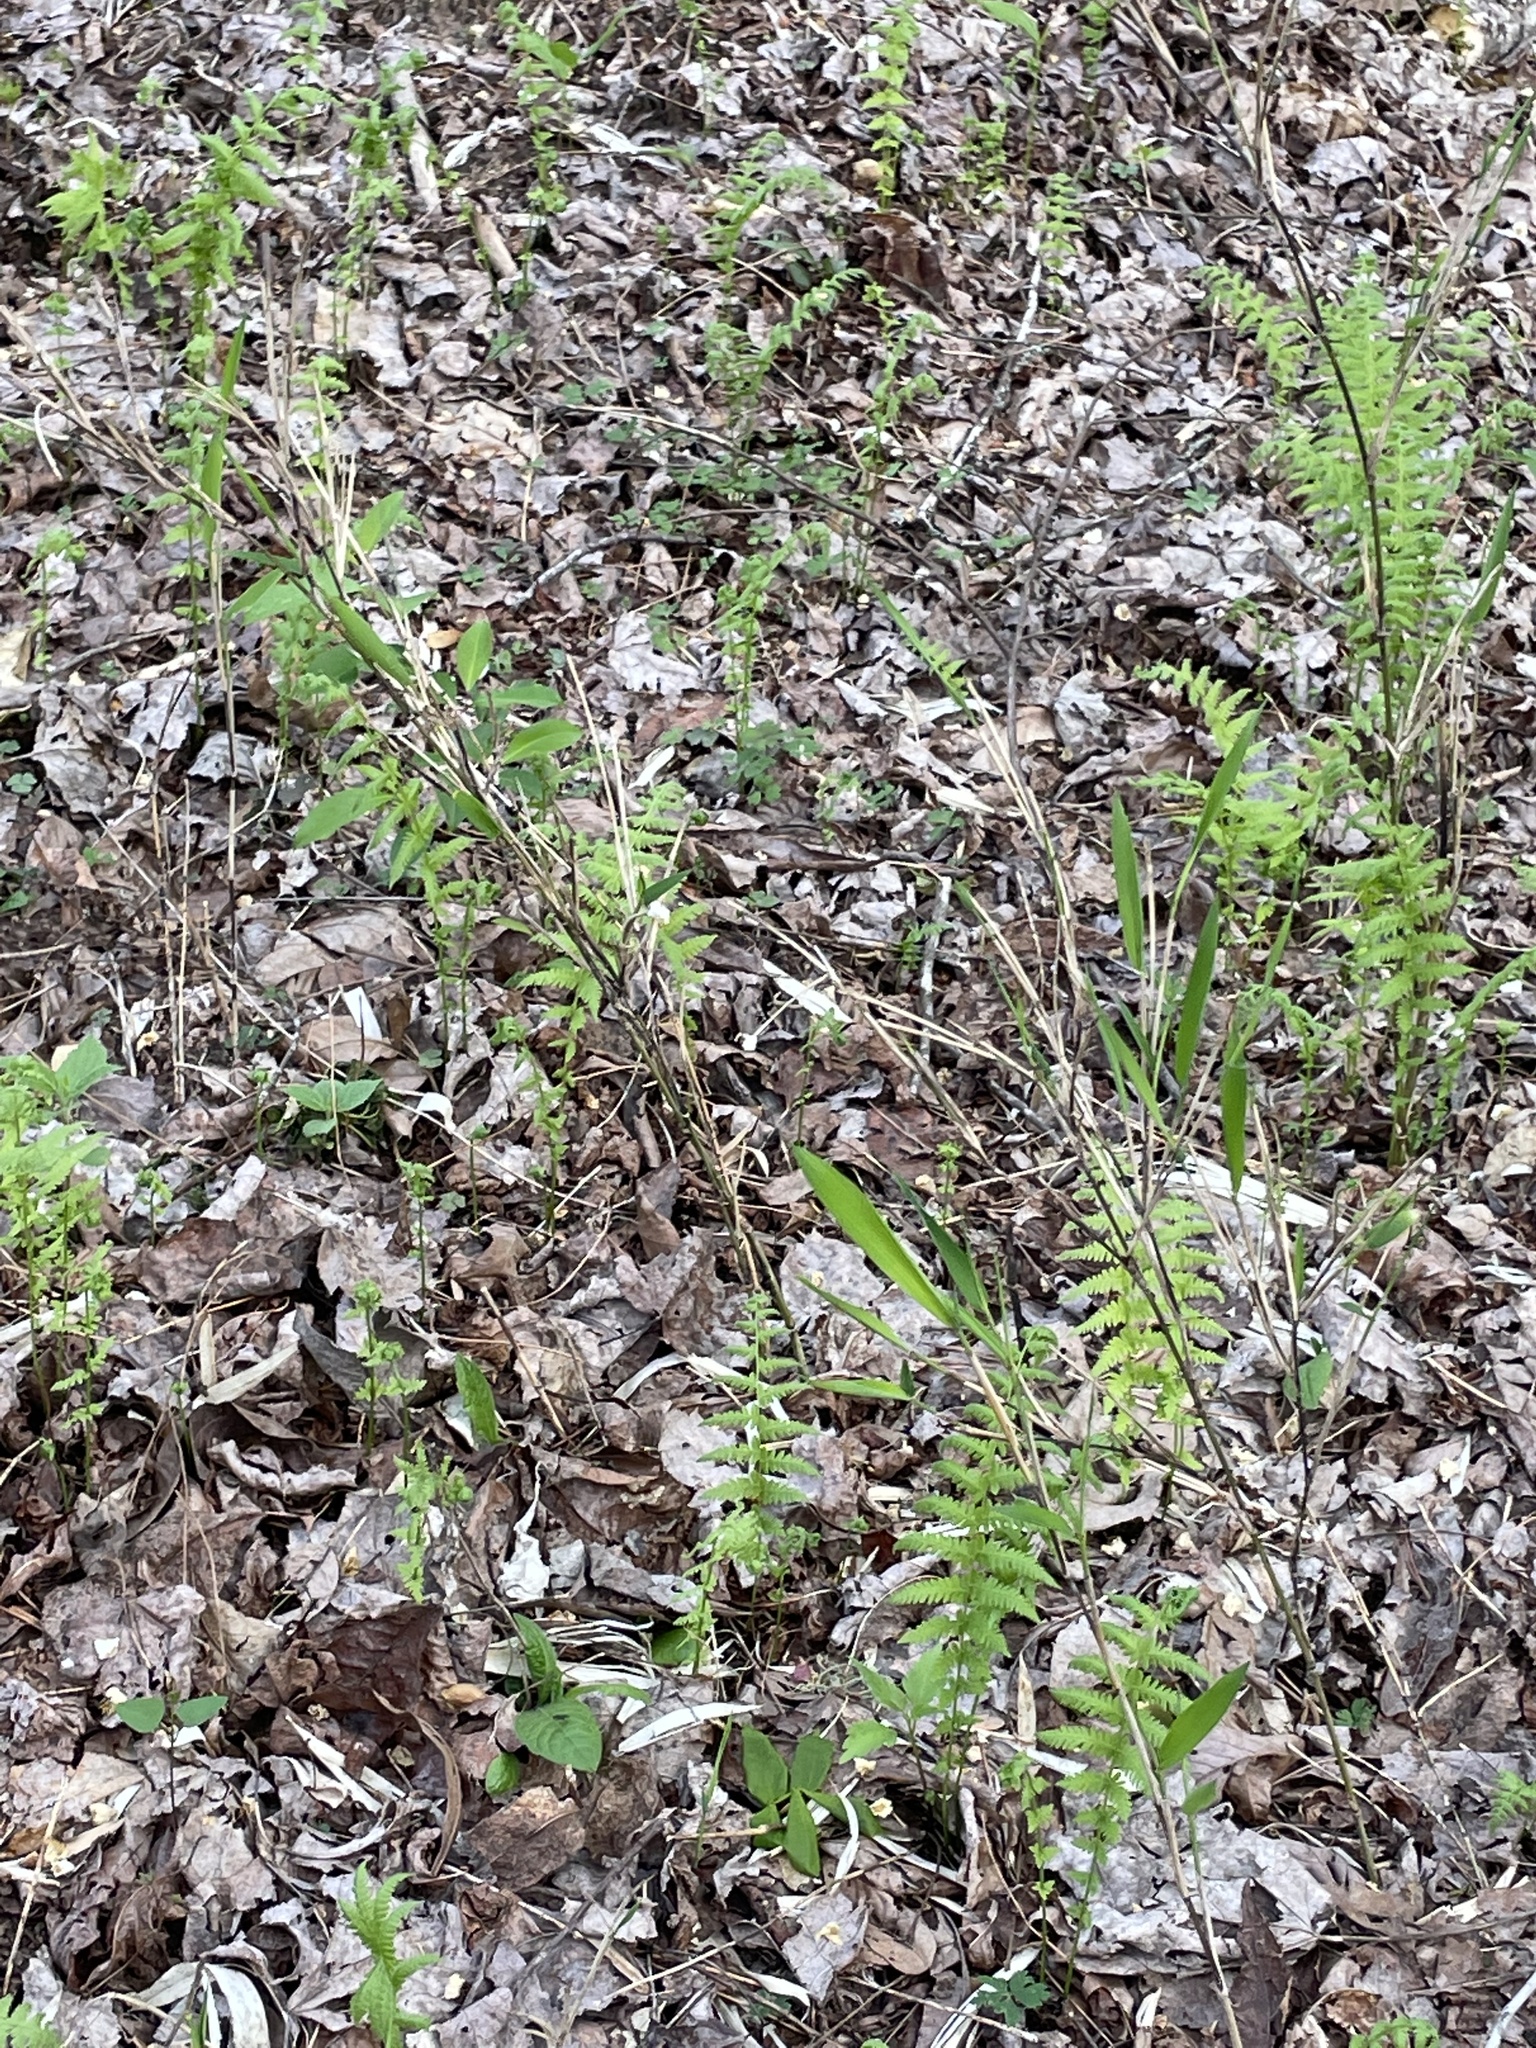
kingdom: Plantae
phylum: Tracheophyta
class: Liliopsida
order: Poales
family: Poaceae
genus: Arundinaria
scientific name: Arundinaria appalachiana
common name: Hill cane
